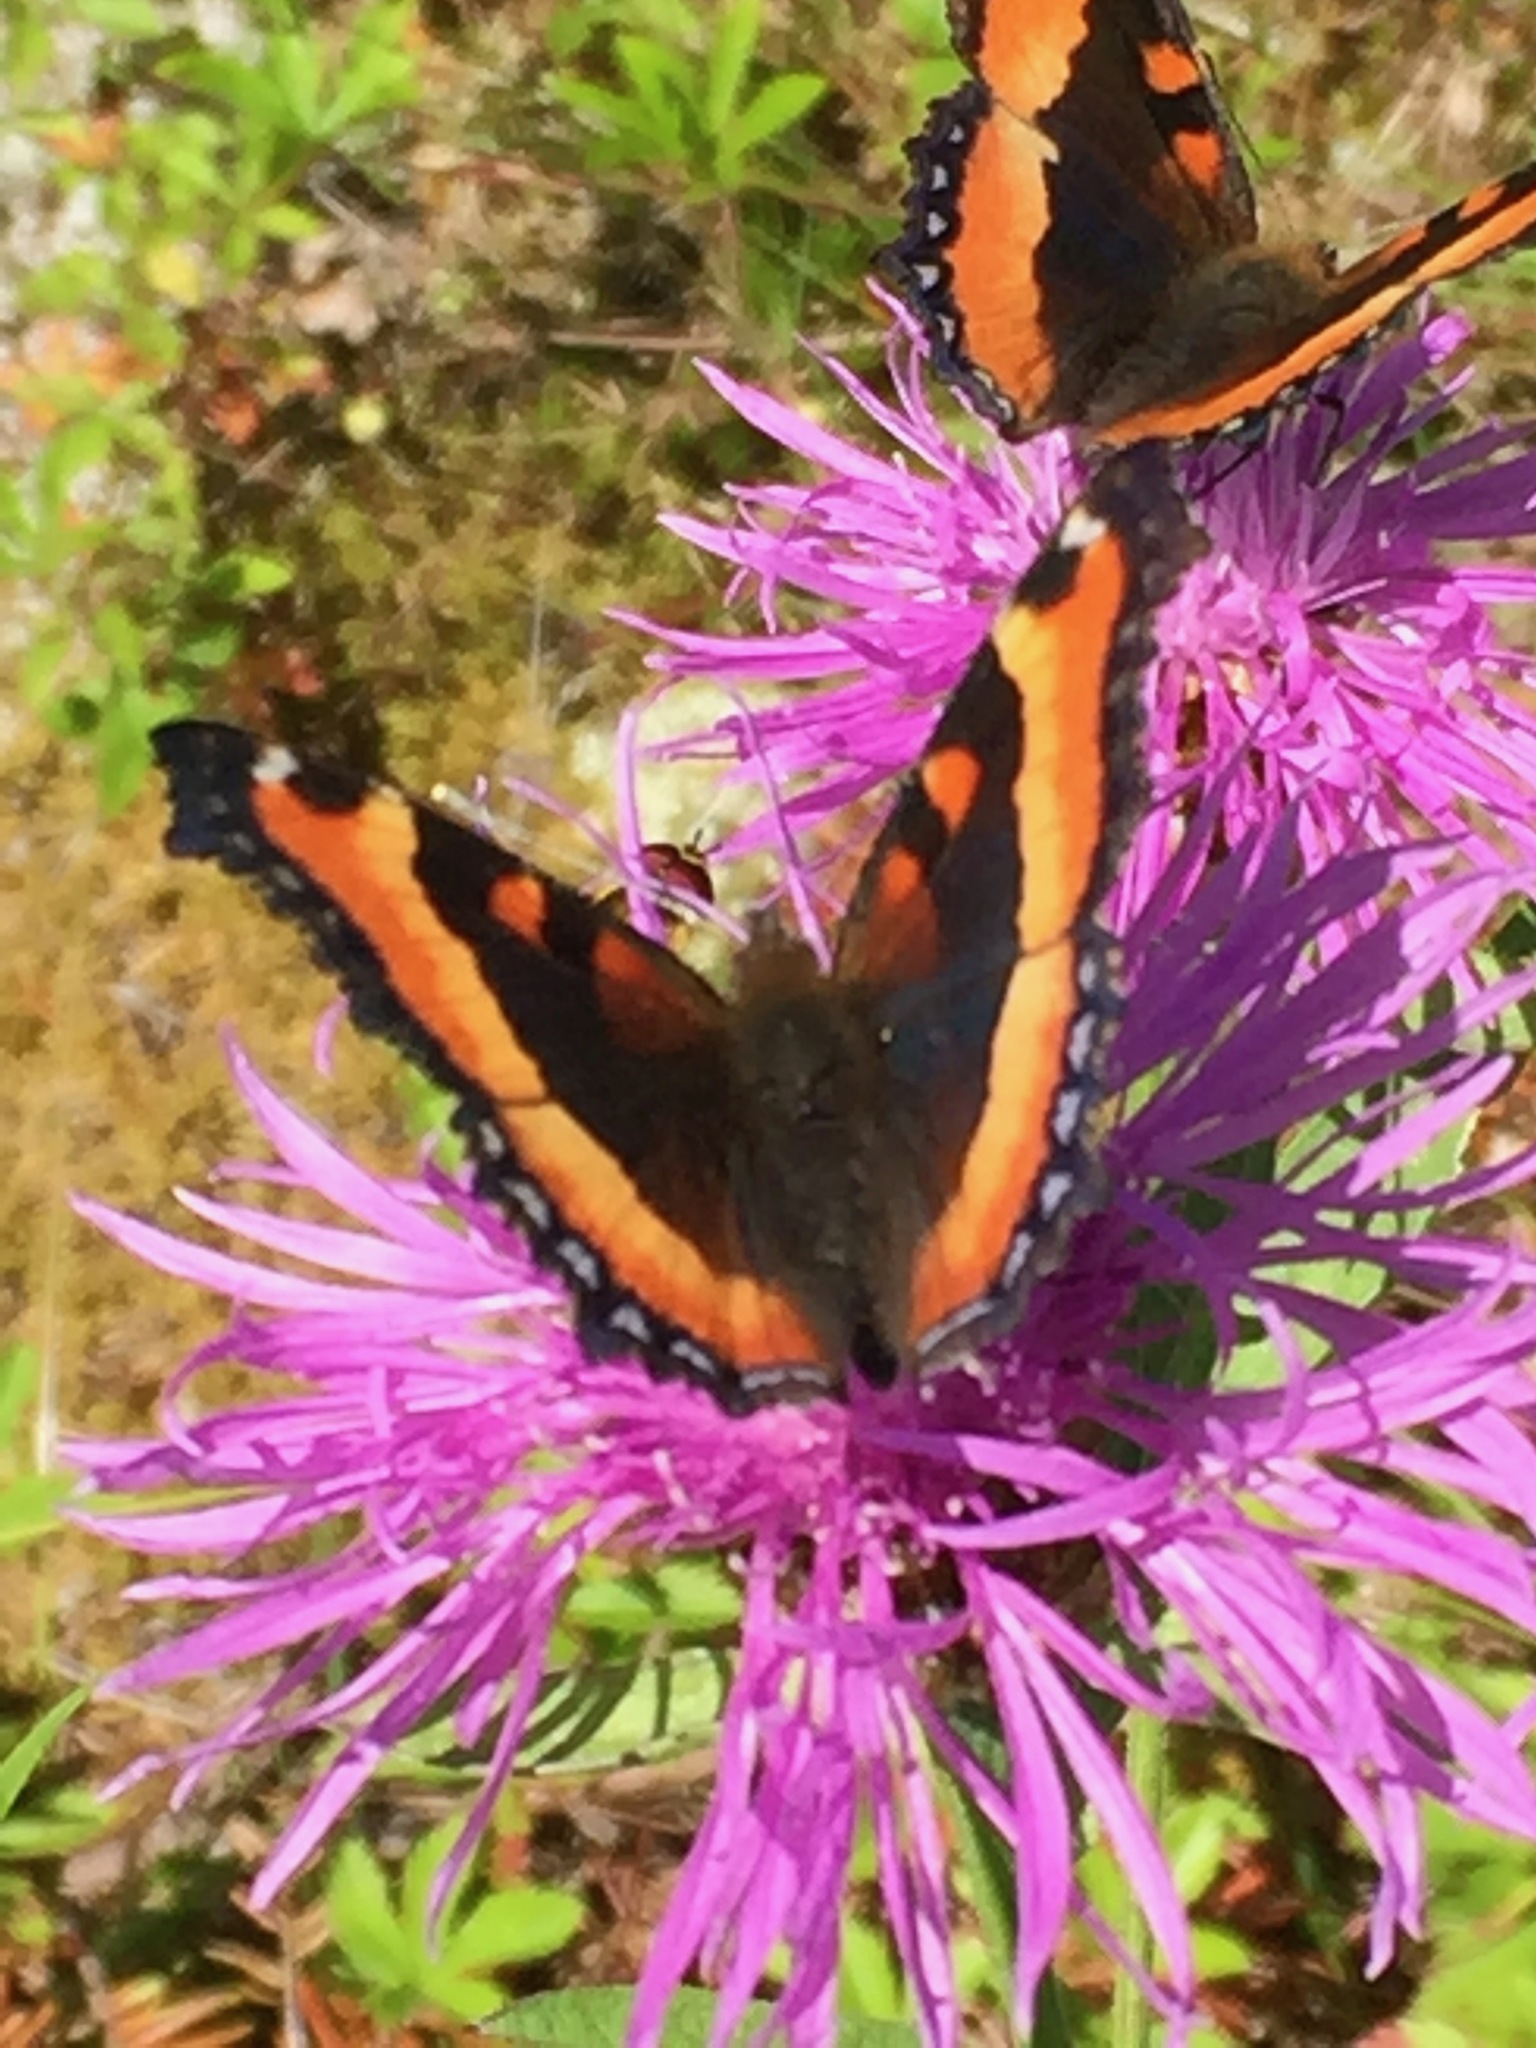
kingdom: Animalia
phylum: Arthropoda
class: Insecta
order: Lepidoptera
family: Nymphalidae
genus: Aglais
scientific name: Aglais milberti
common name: Milbert's tortoiseshell
